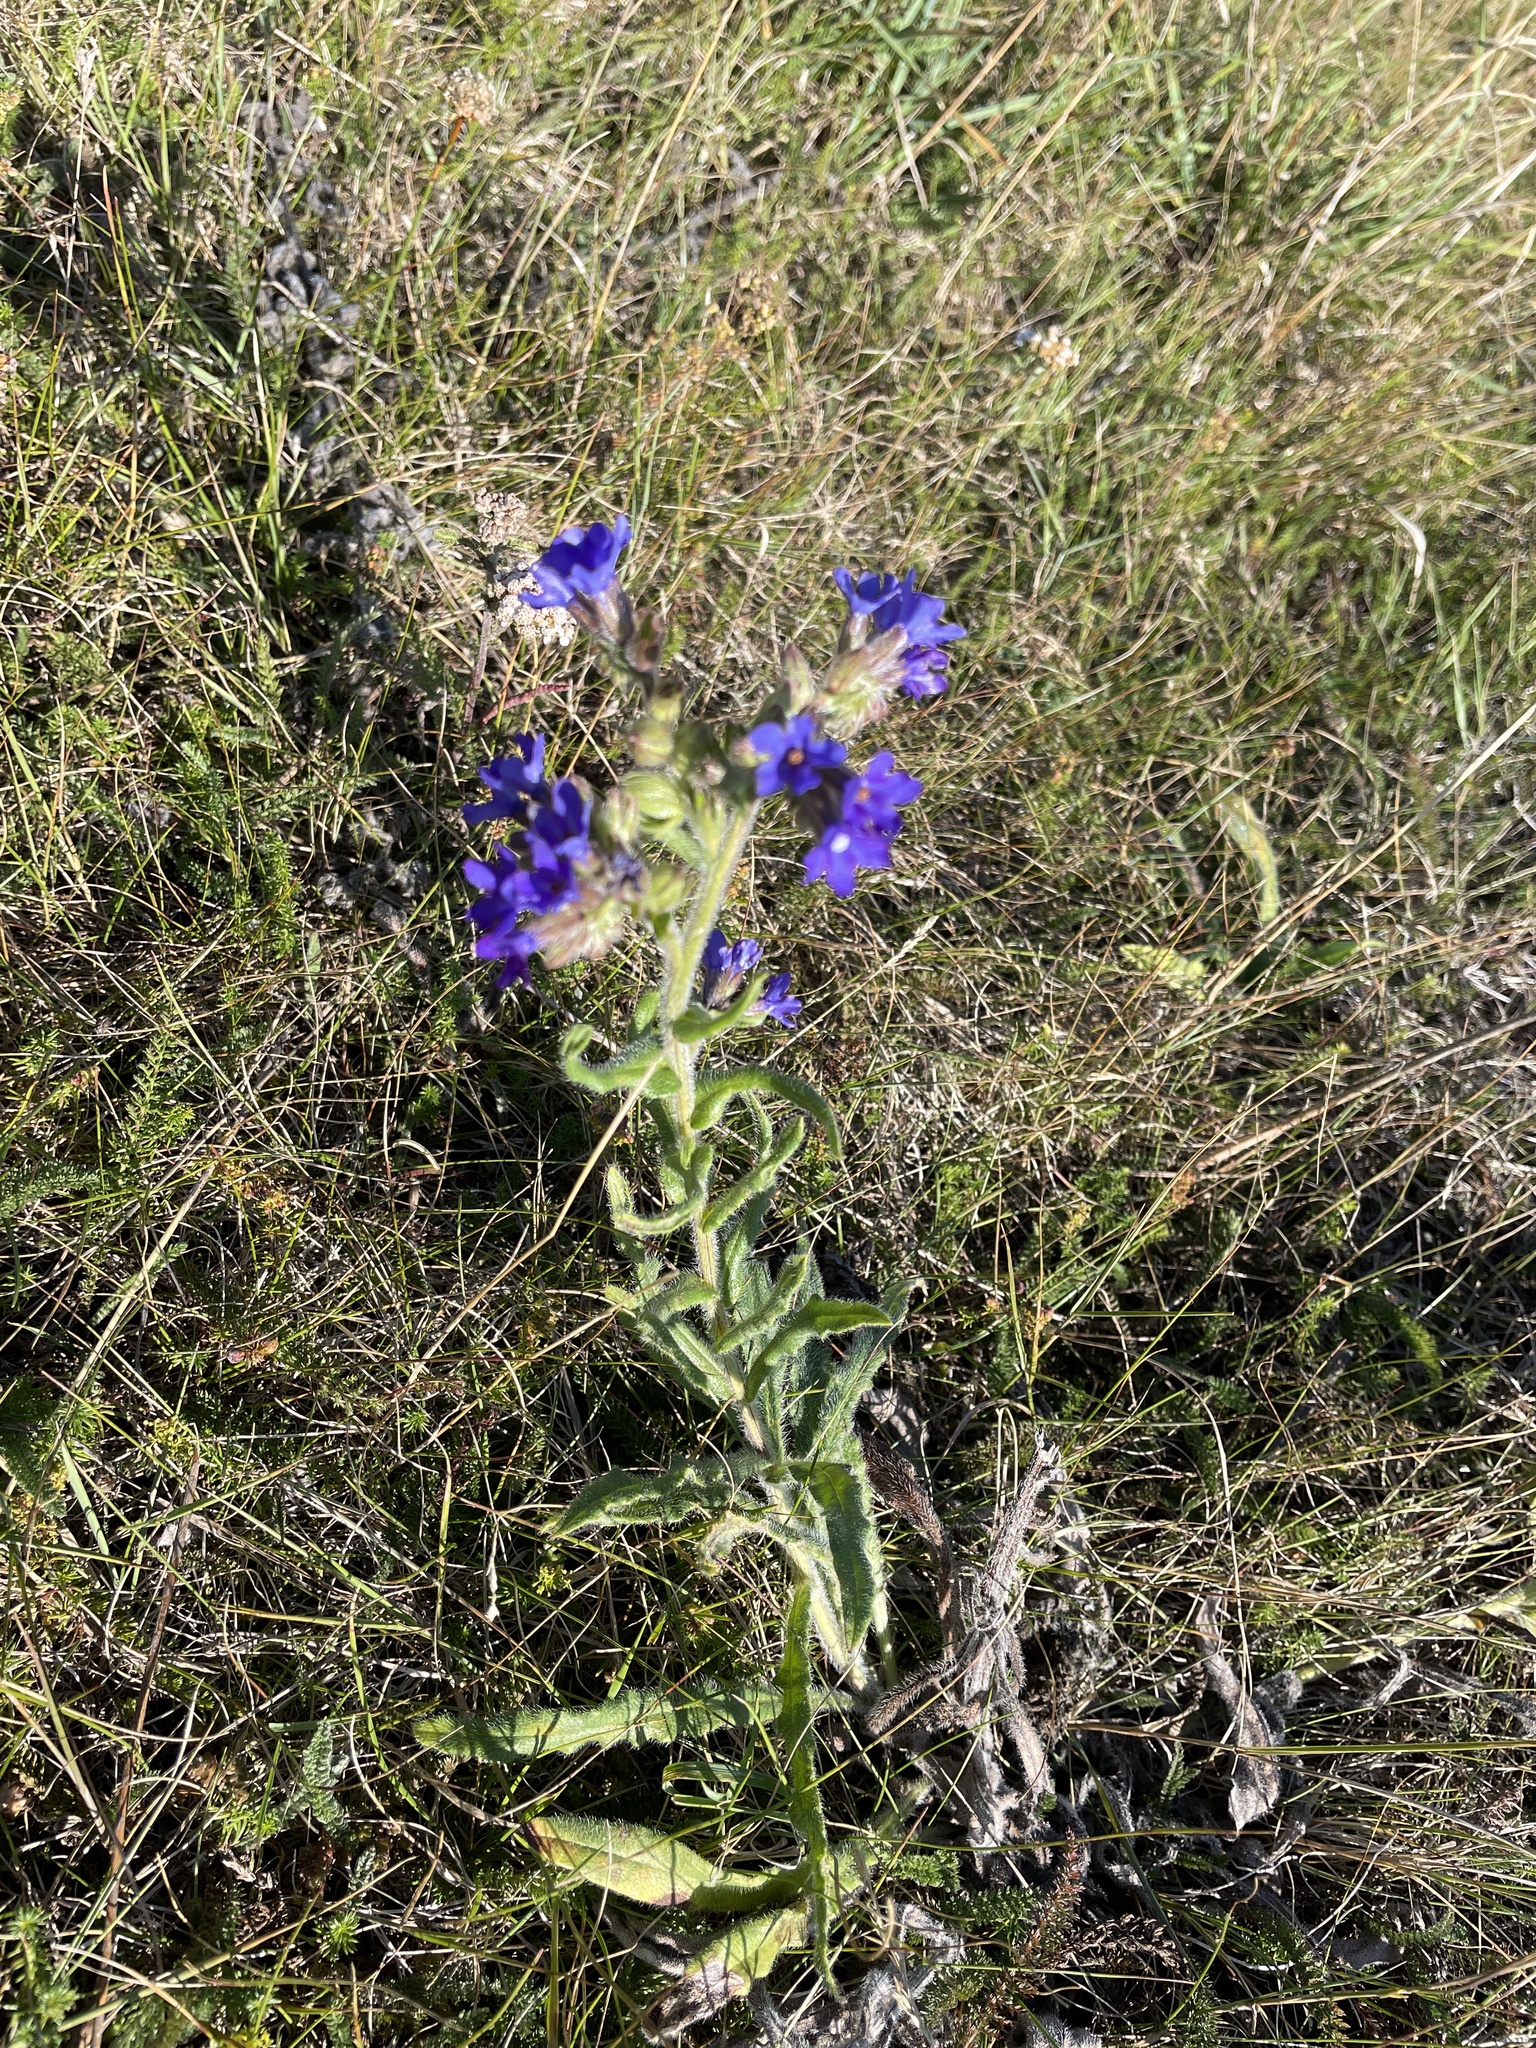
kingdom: Plantae
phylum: Tracheophyta
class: Magnoliopsida
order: Boraginales
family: Boraginaceae
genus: Anchusa
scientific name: Anchusa officinalis
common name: Alkanet
